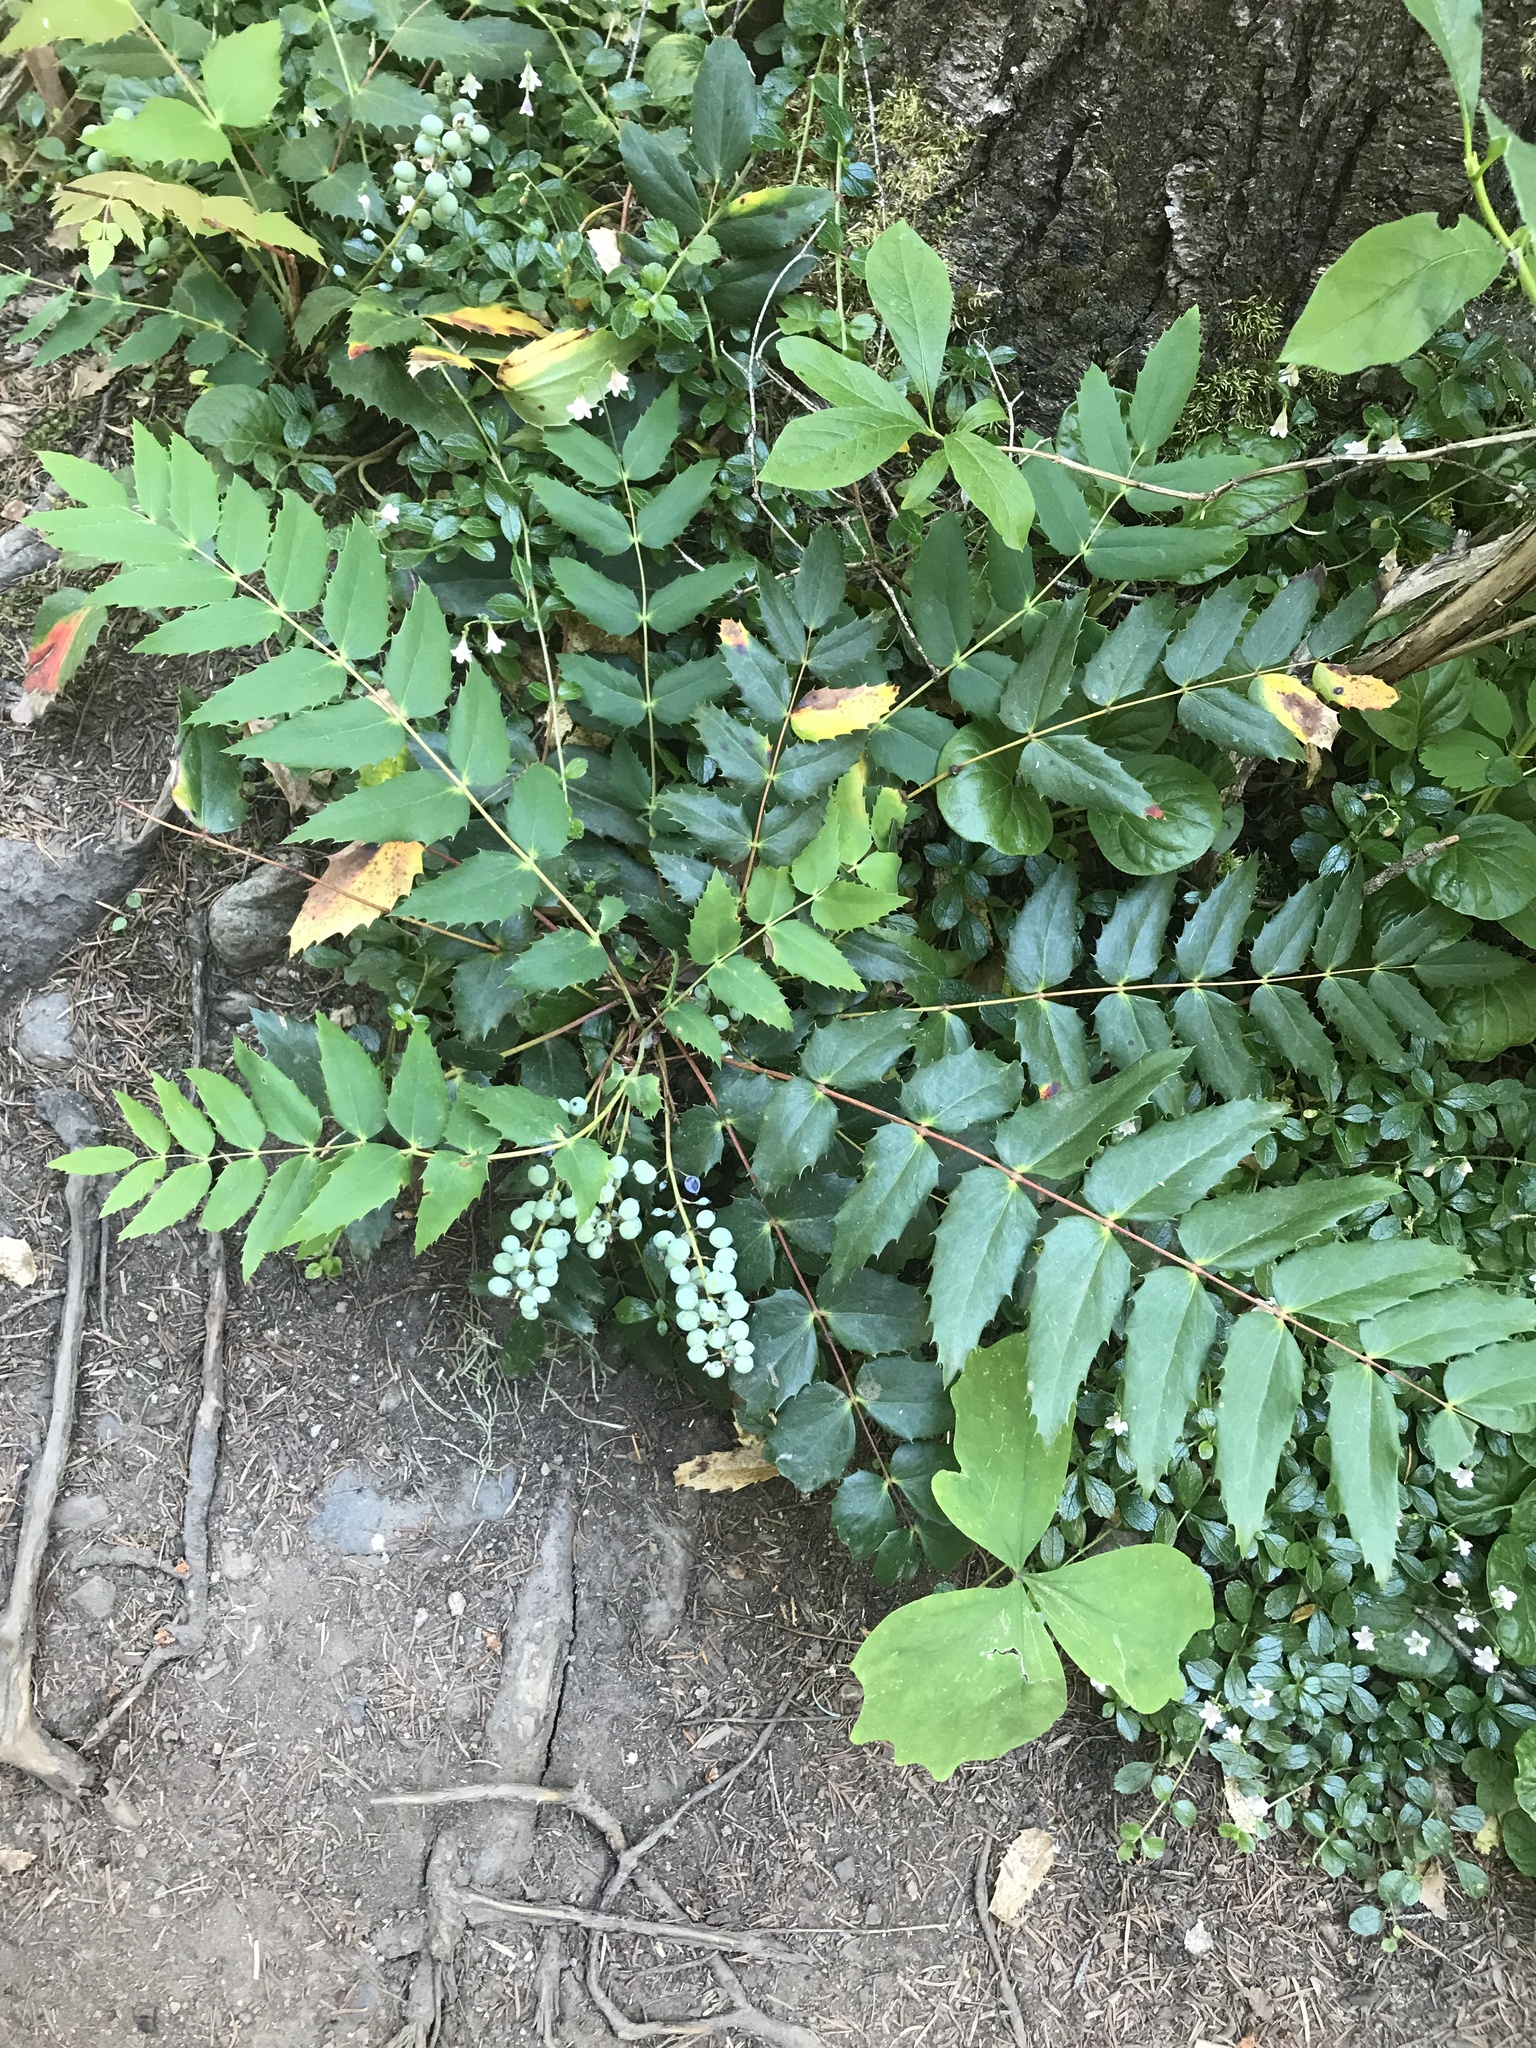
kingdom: Plantae
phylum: Tracheophyta
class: Magnoliopsida
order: Ranunculales
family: Berberidaceae
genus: Mahonia
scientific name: Mahonia nervosa
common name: Cascade oregon-grape
